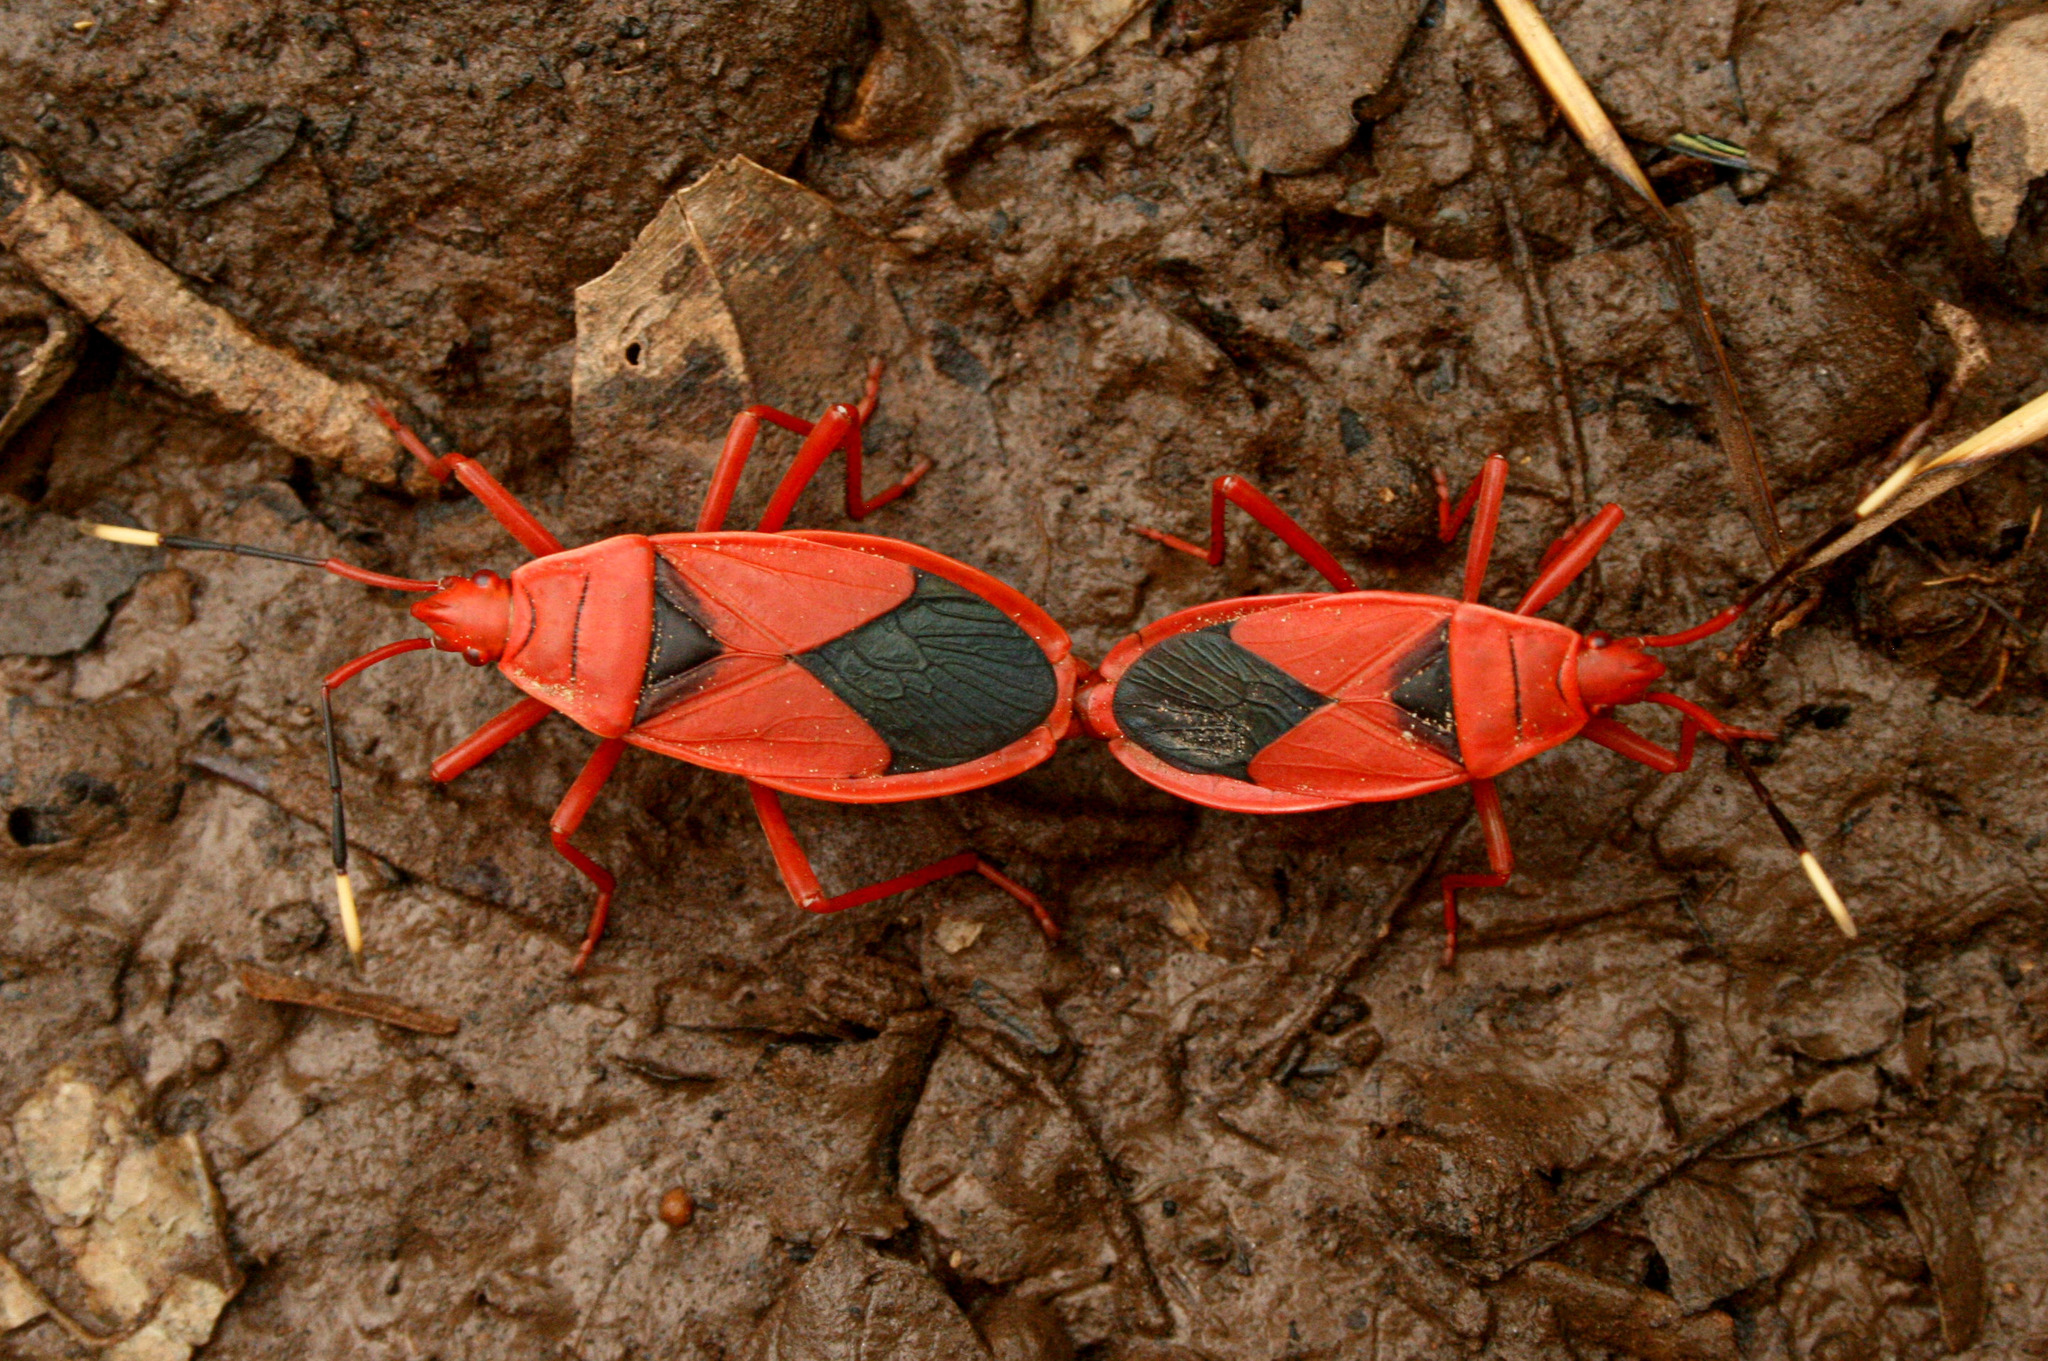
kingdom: Animalia
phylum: Arthropoda
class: Insecta
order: Hemiptera
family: Pyrrhocoridae
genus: Probergrothius
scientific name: Probergrothius
